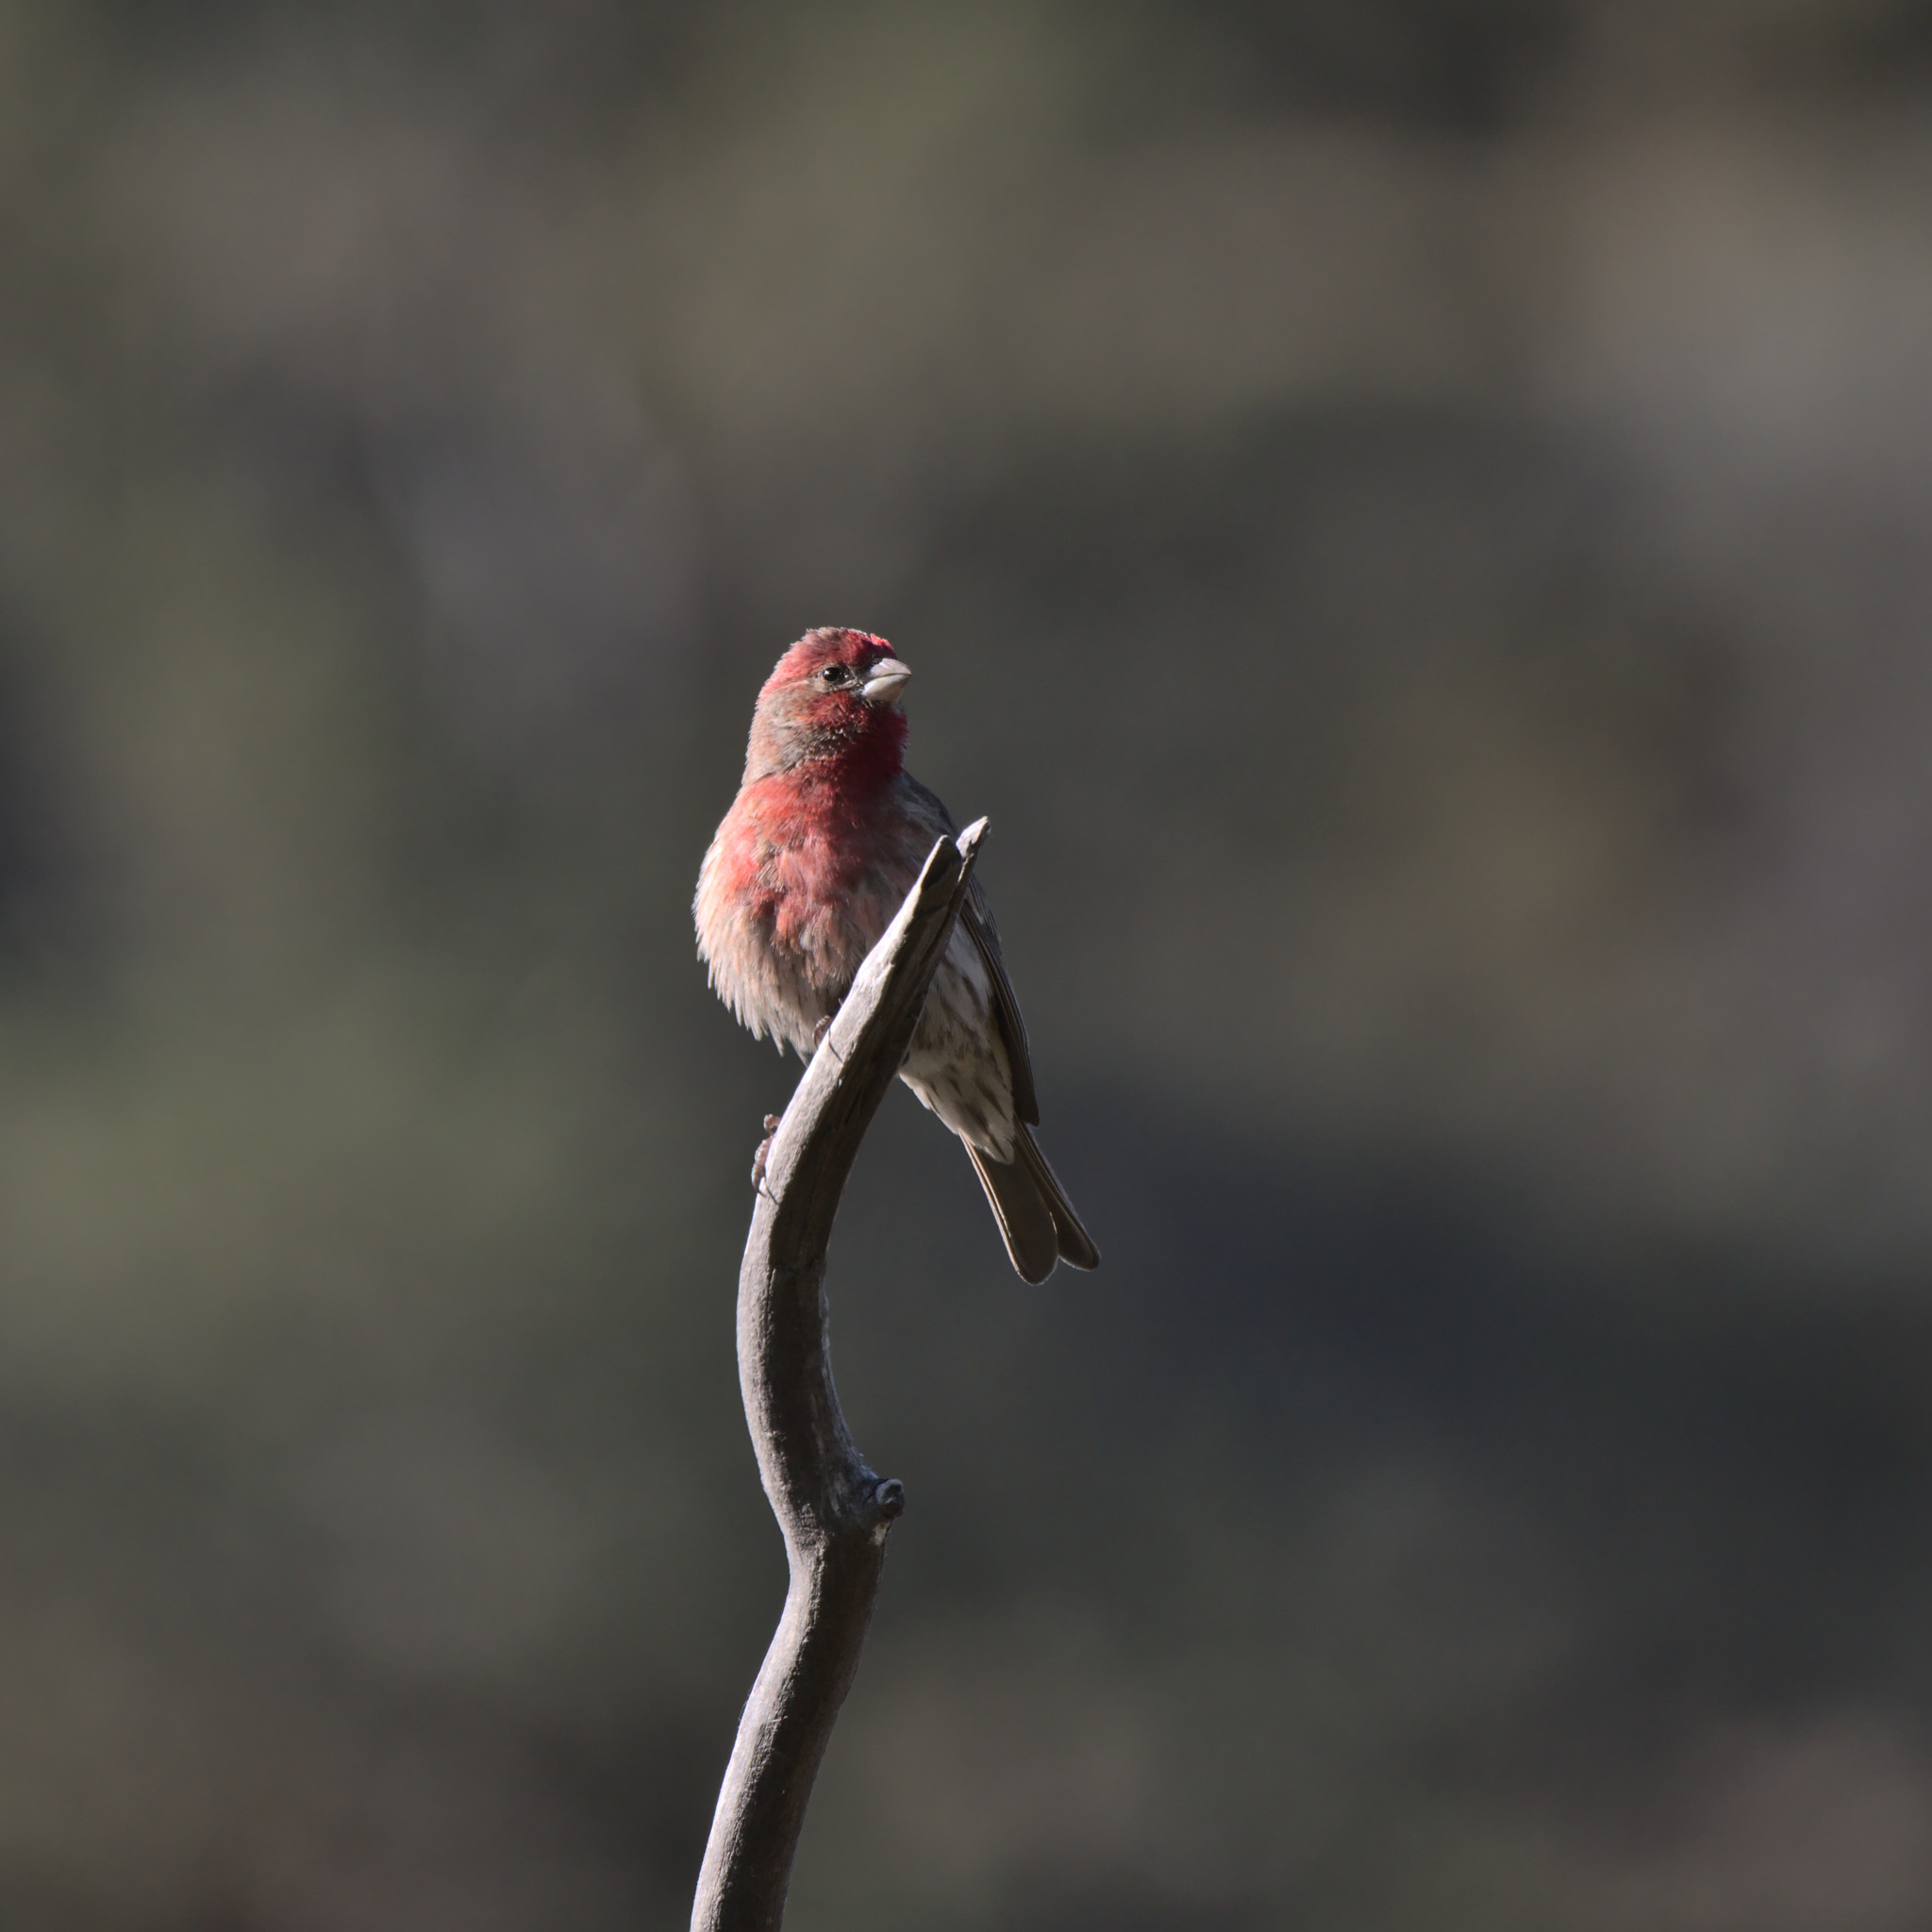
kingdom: Animalia
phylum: Chordata
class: Aves
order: Passeriformes
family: Fringillidae
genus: Haemorhous
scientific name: Haemorhous mexicanus
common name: House finch
